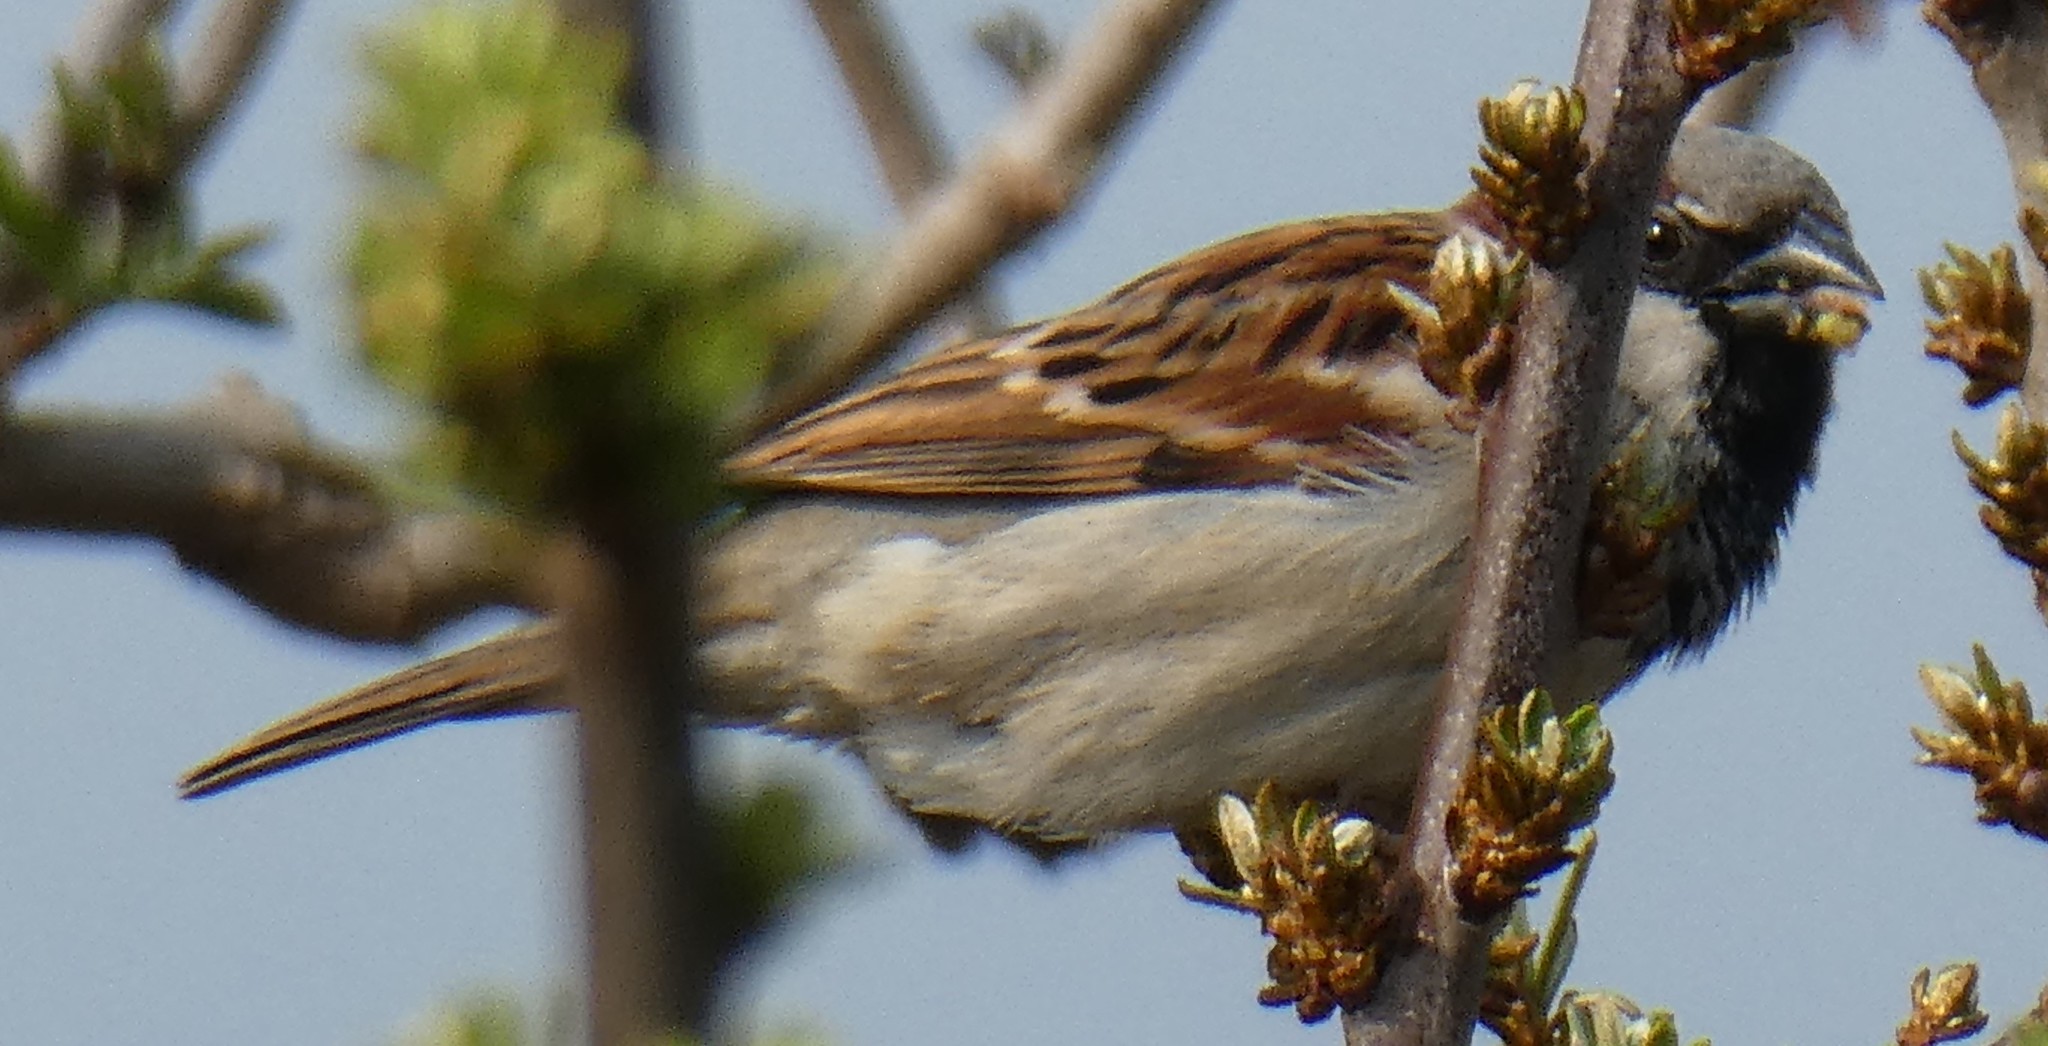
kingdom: Animalia
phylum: Chordata
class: Aves
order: Passeriformes
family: Passeridae
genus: Passer
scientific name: Passer domesticus
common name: House sparrow
